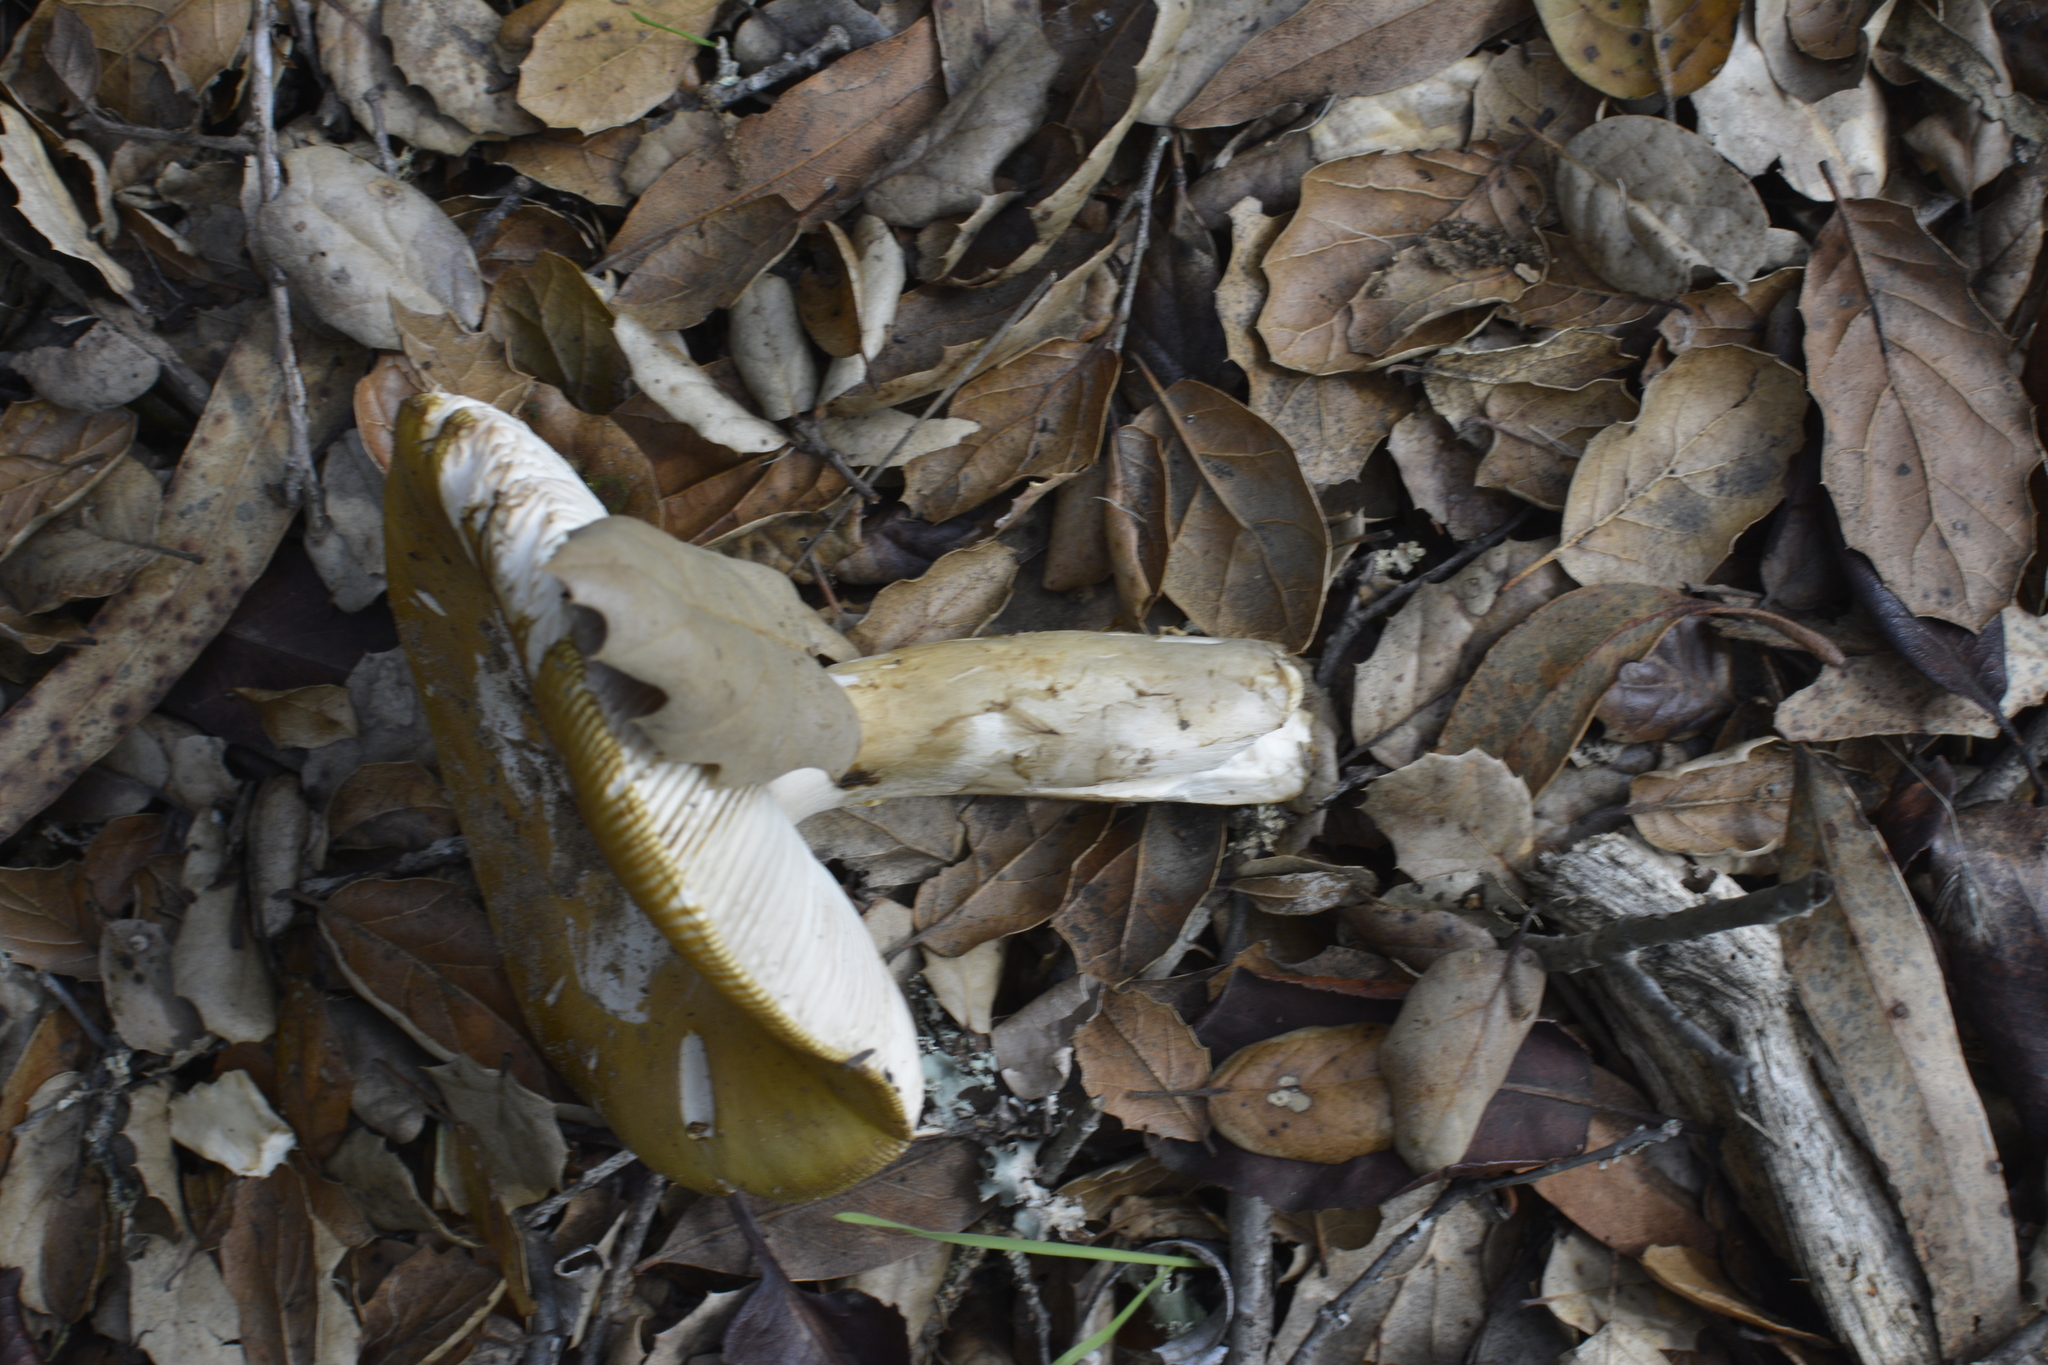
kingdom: Fungi
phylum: Basidiomycota
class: Agaricomycetes
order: Agaricales
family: Amanitaceae
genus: Amanita
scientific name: Amanita calyptroderma
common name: Coccora
